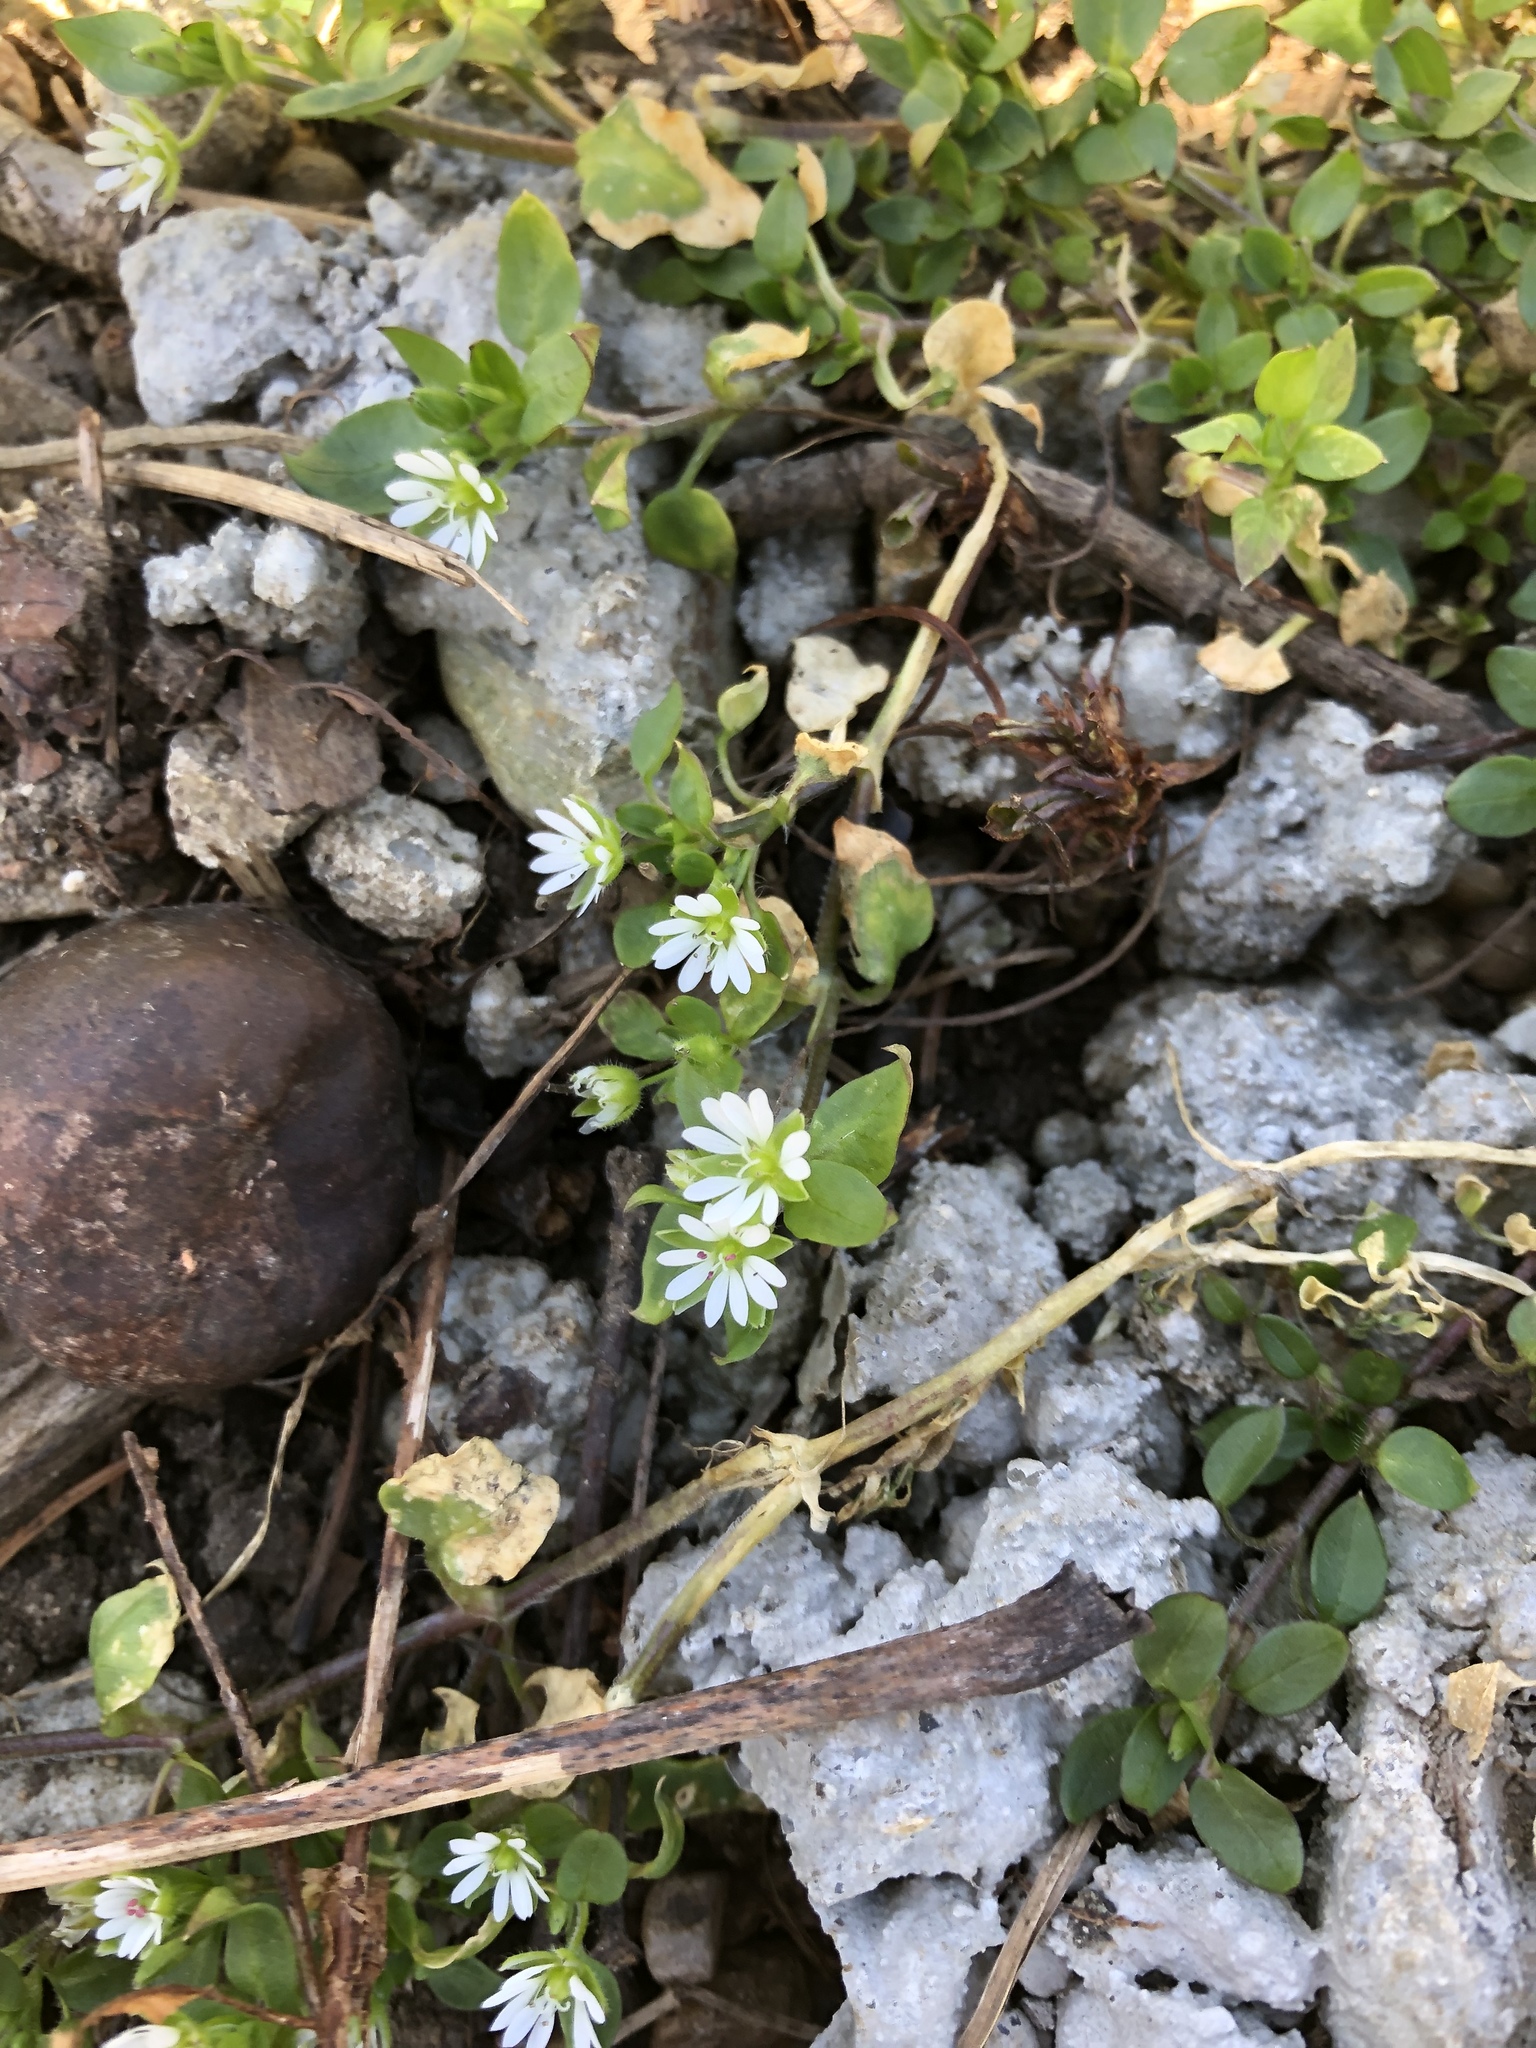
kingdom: Plantae
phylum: Tracheophyta
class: Magnoliopsida
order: Caryophyllales
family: Caryophyllaceae
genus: Stellaria
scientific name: Stellaria media
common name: Common chickweed
